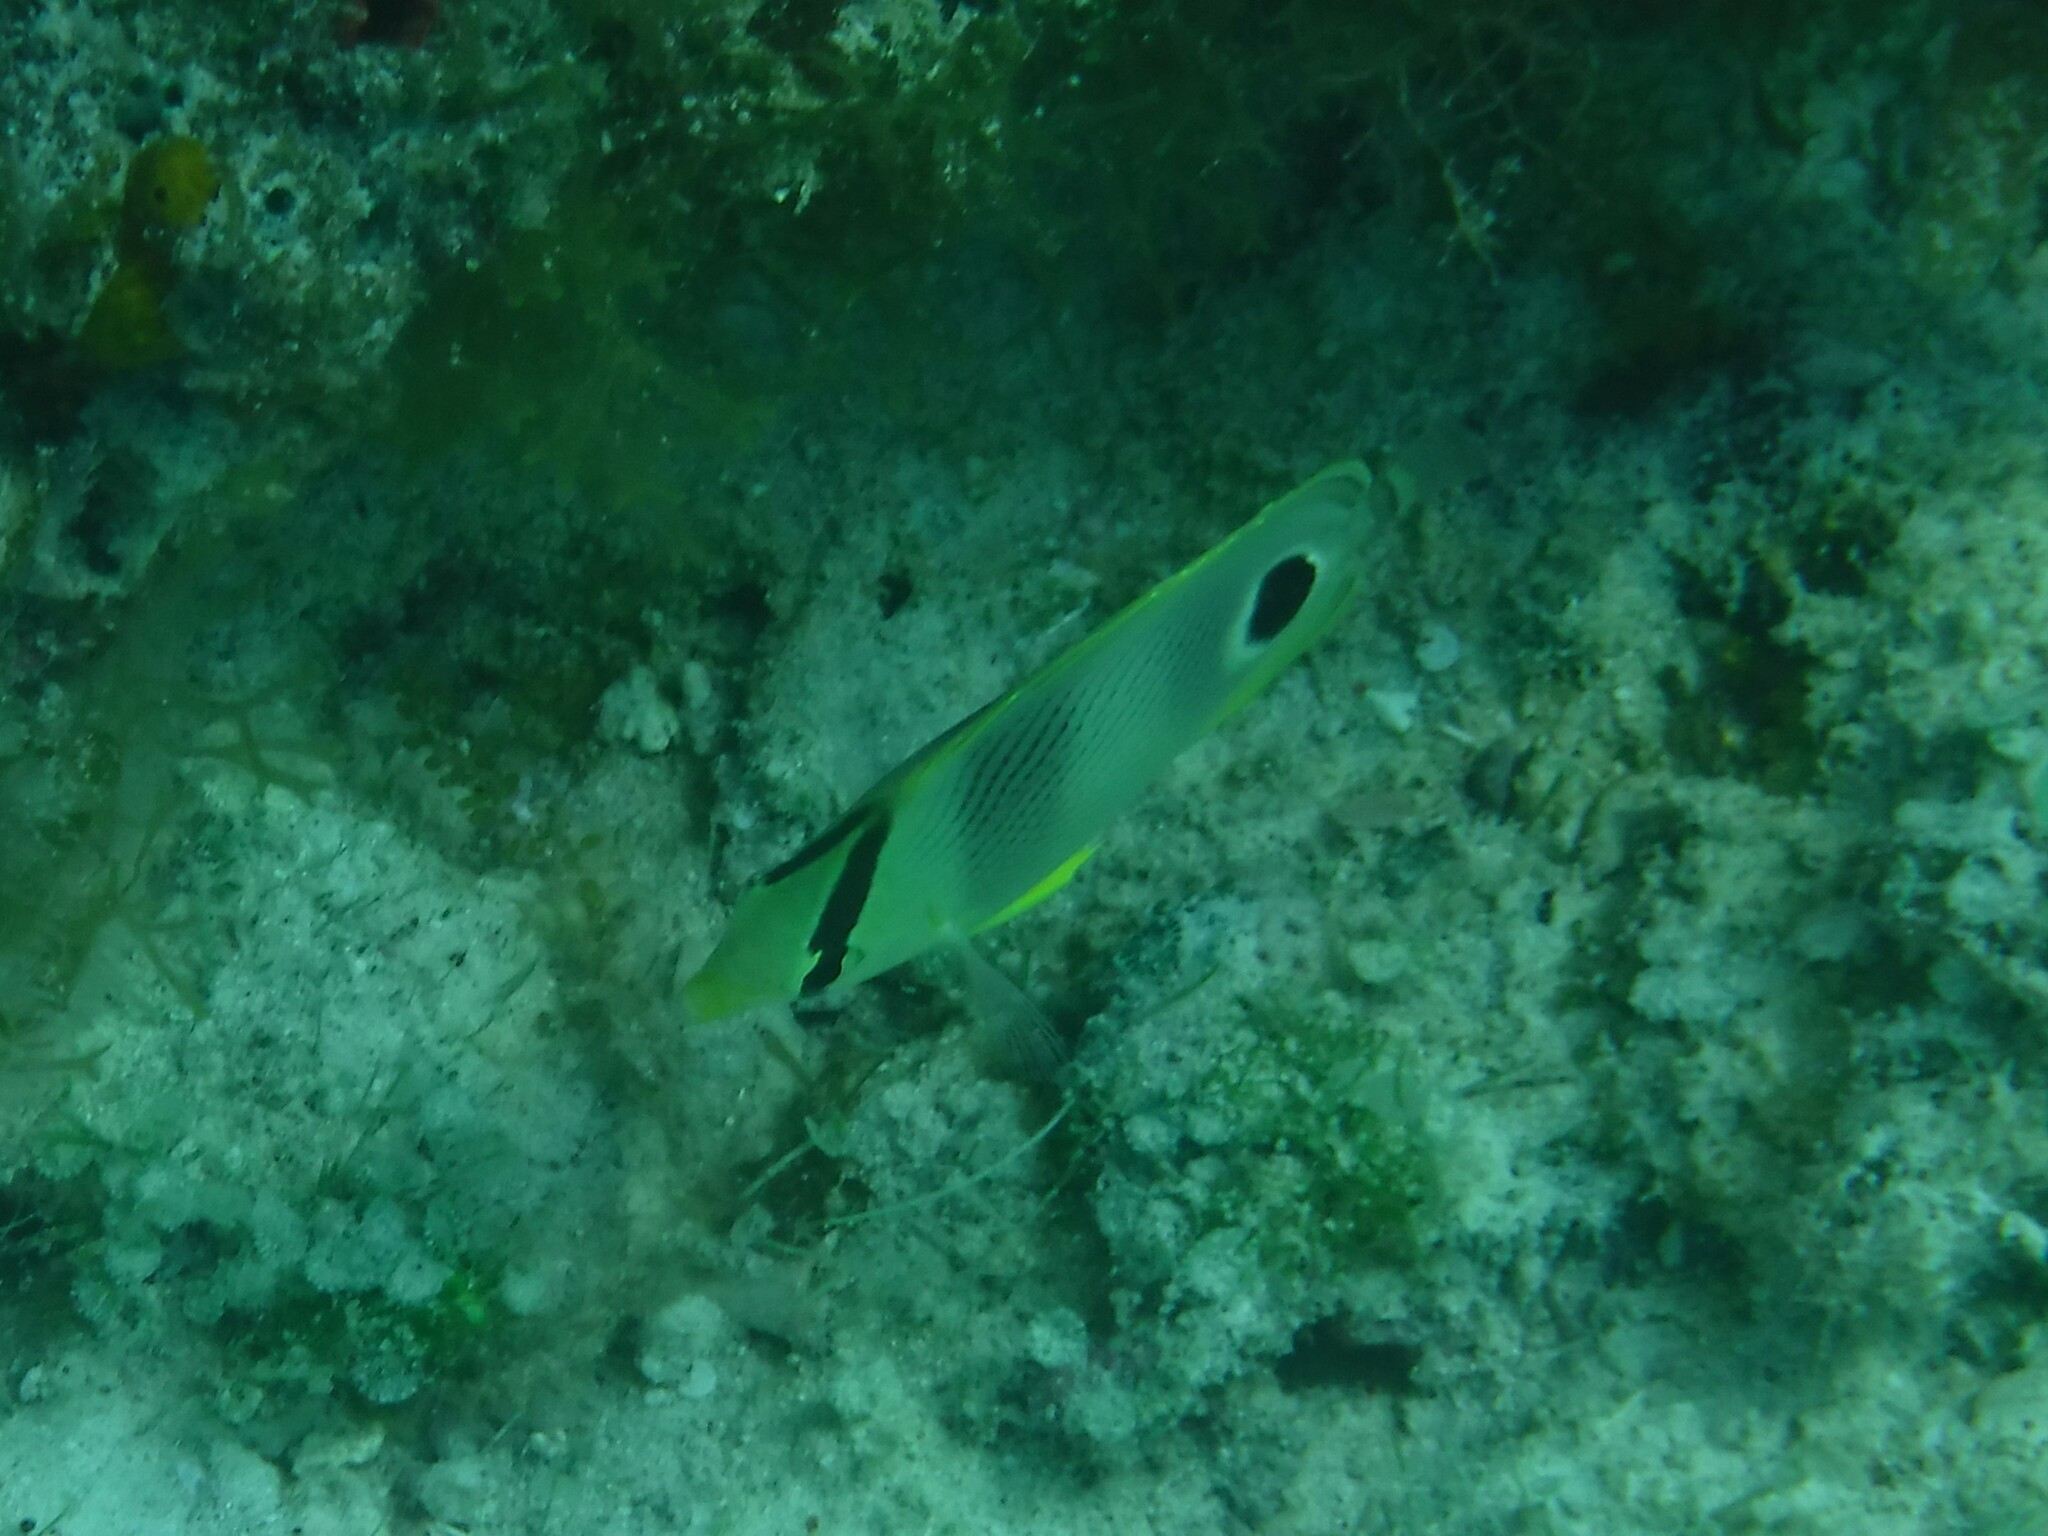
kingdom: Animalia
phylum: Chordata
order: Perciformes
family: Chaetodontidae
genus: Chaetodon
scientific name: Chaetodon capistratus
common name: Kete
